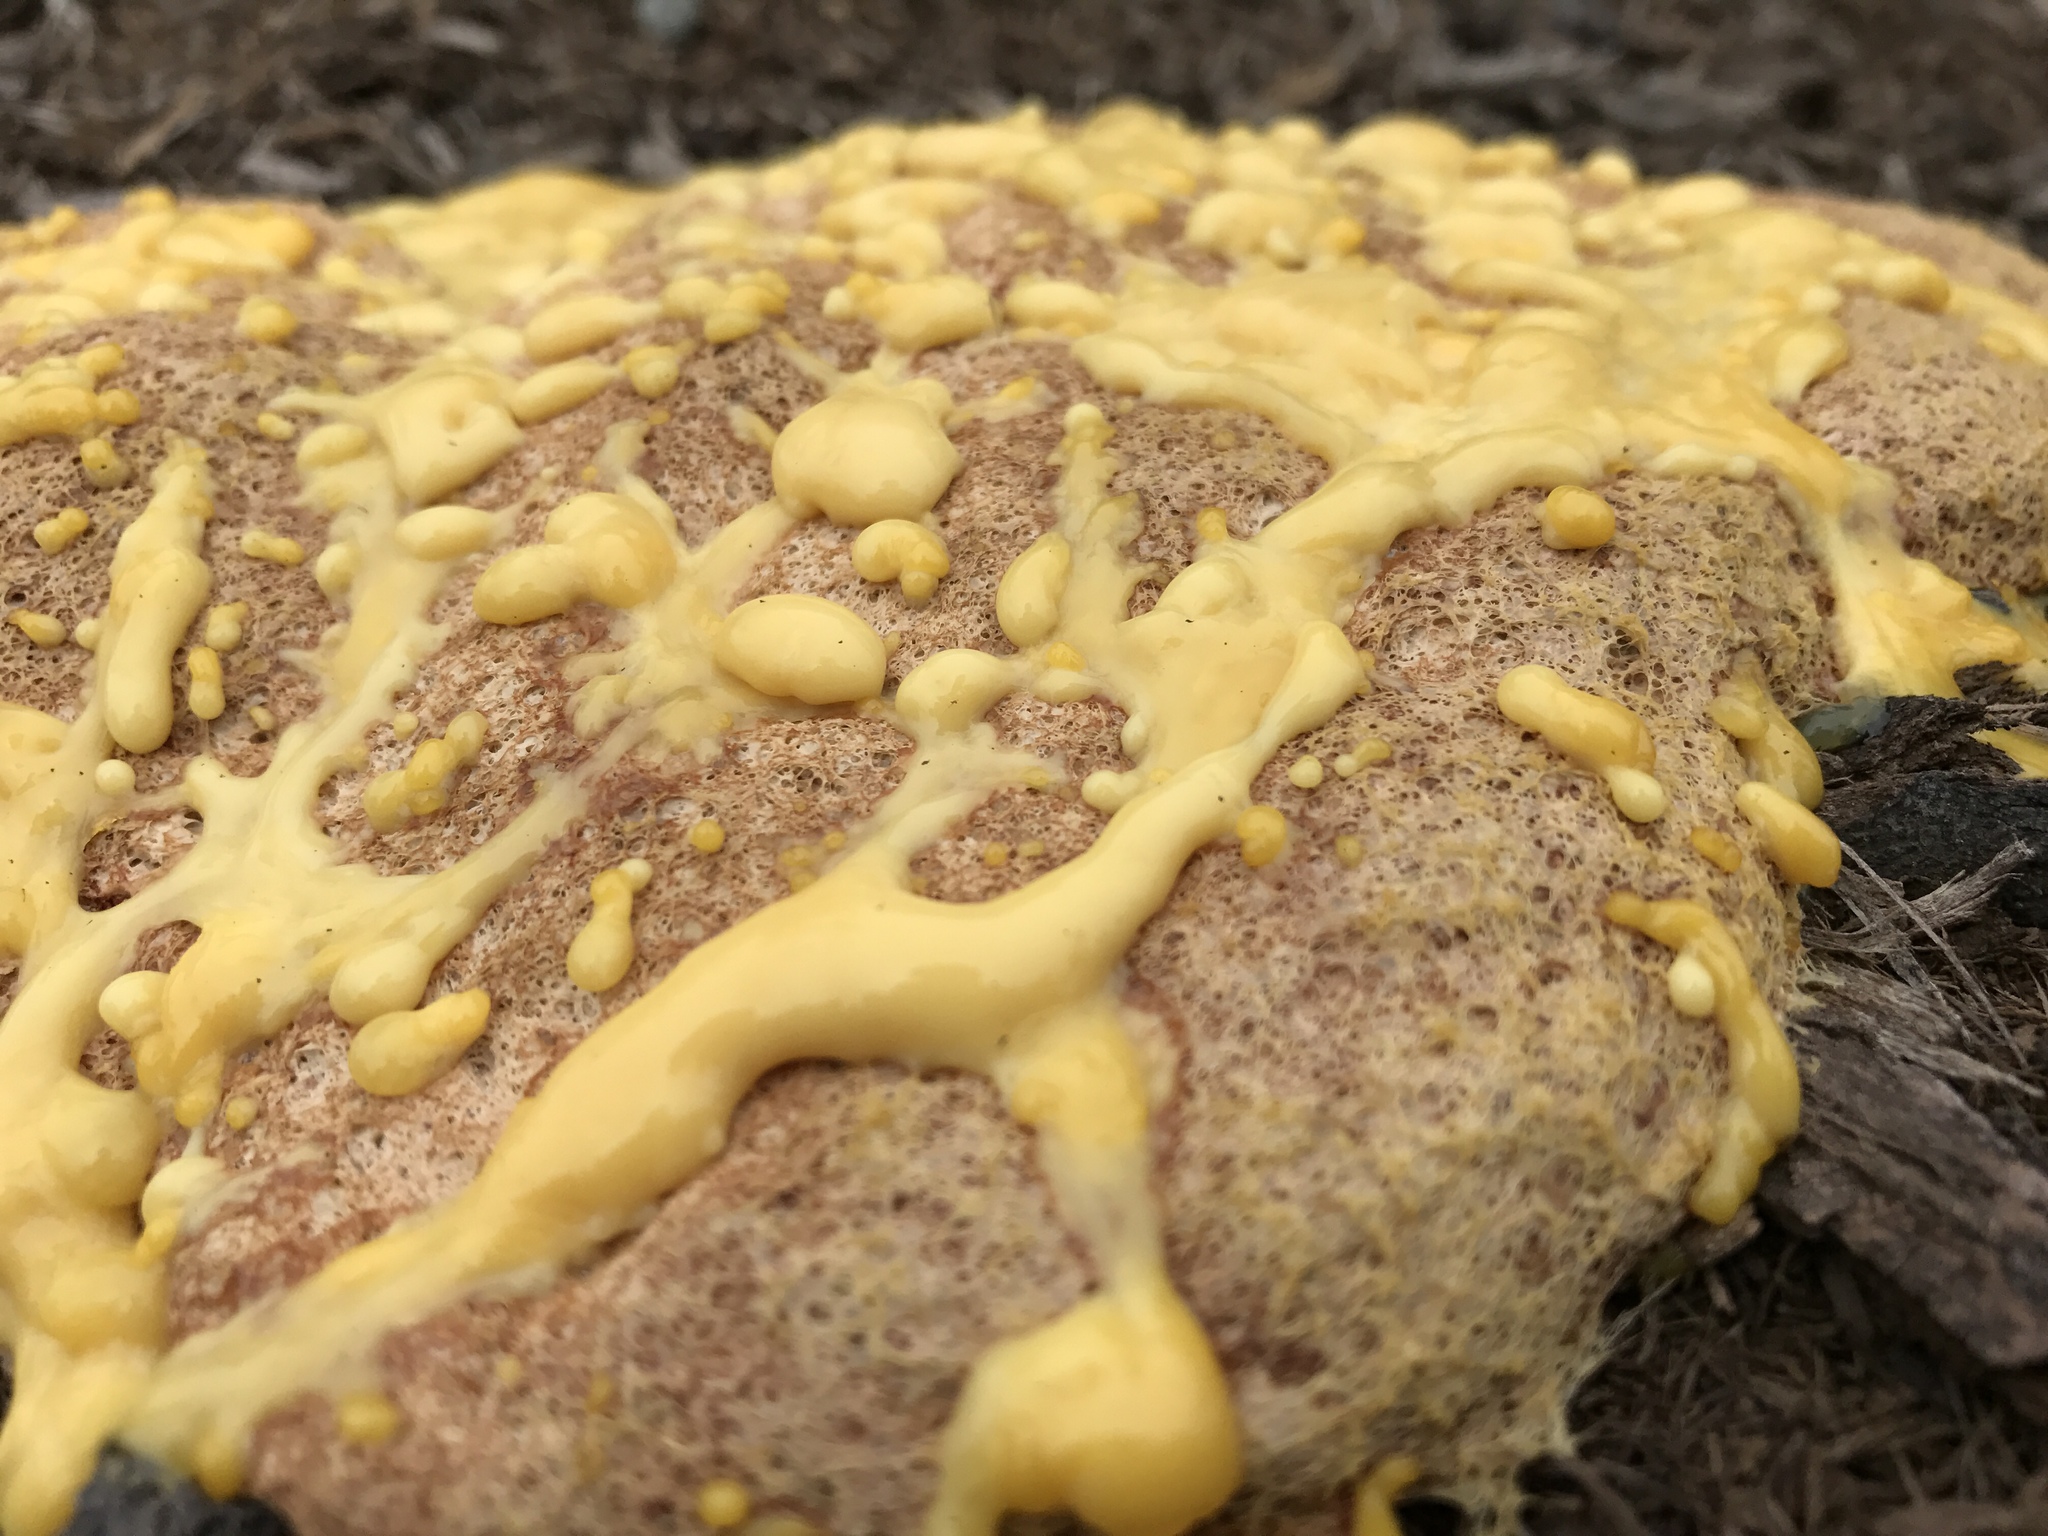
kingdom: Protozoa
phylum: Mycetozoa
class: Myxomycetes
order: Physarales
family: Physaraceae
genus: Fuligo
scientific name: Fuligo septica
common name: Dog vomit slime mold
